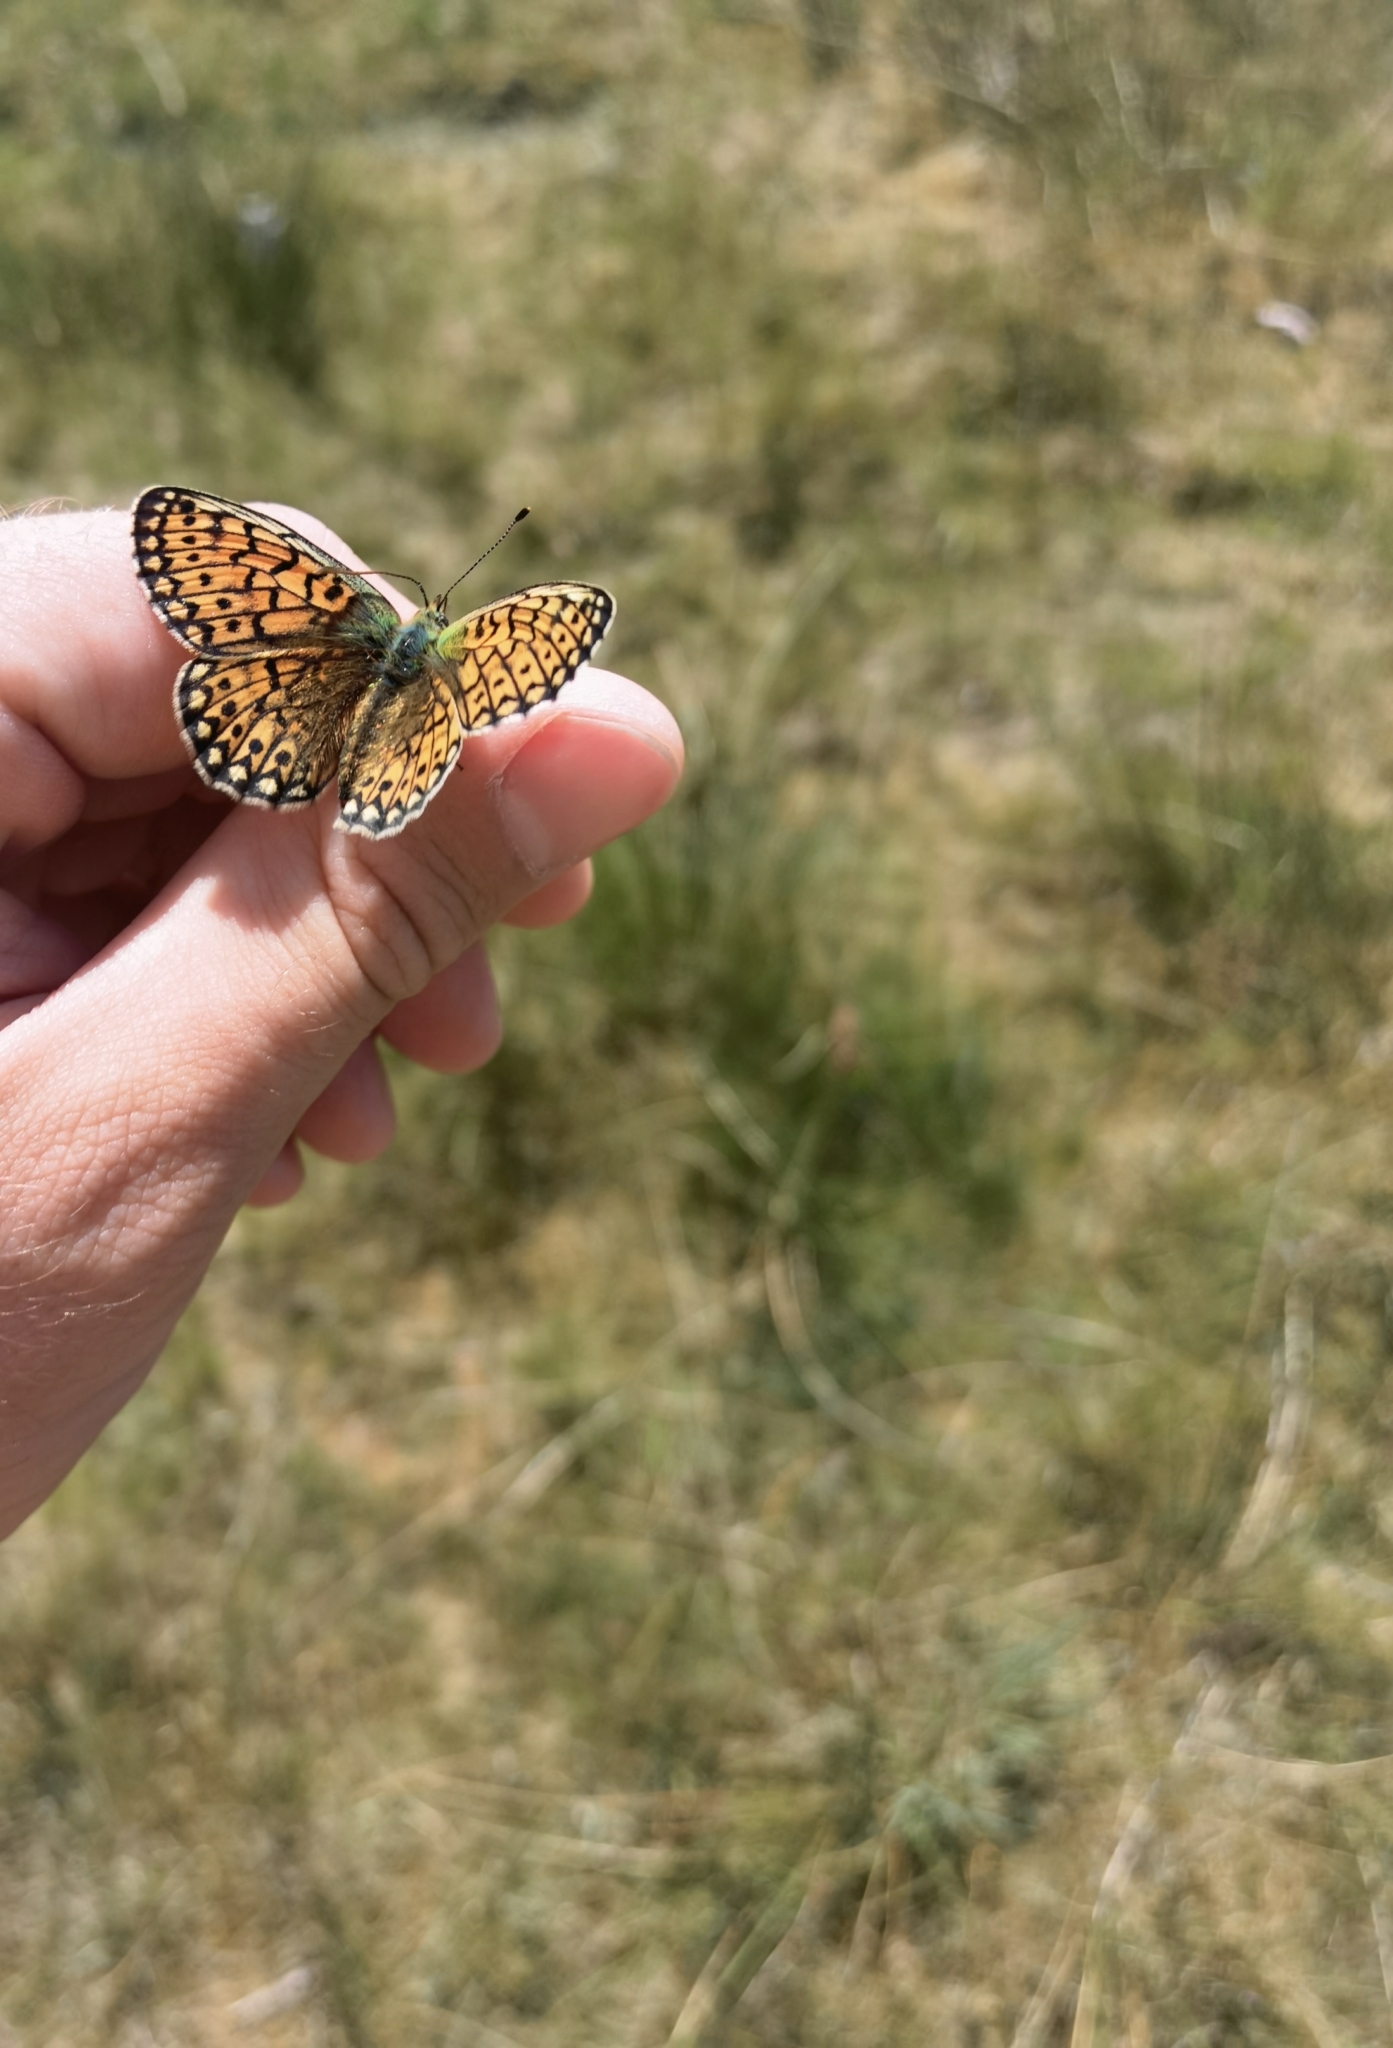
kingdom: Animalia
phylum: Arthropoda
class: Insecta
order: Lepidoptera
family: Nymphalidae
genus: Boloria
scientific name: Boloria eunomia
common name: Bog fritillary
